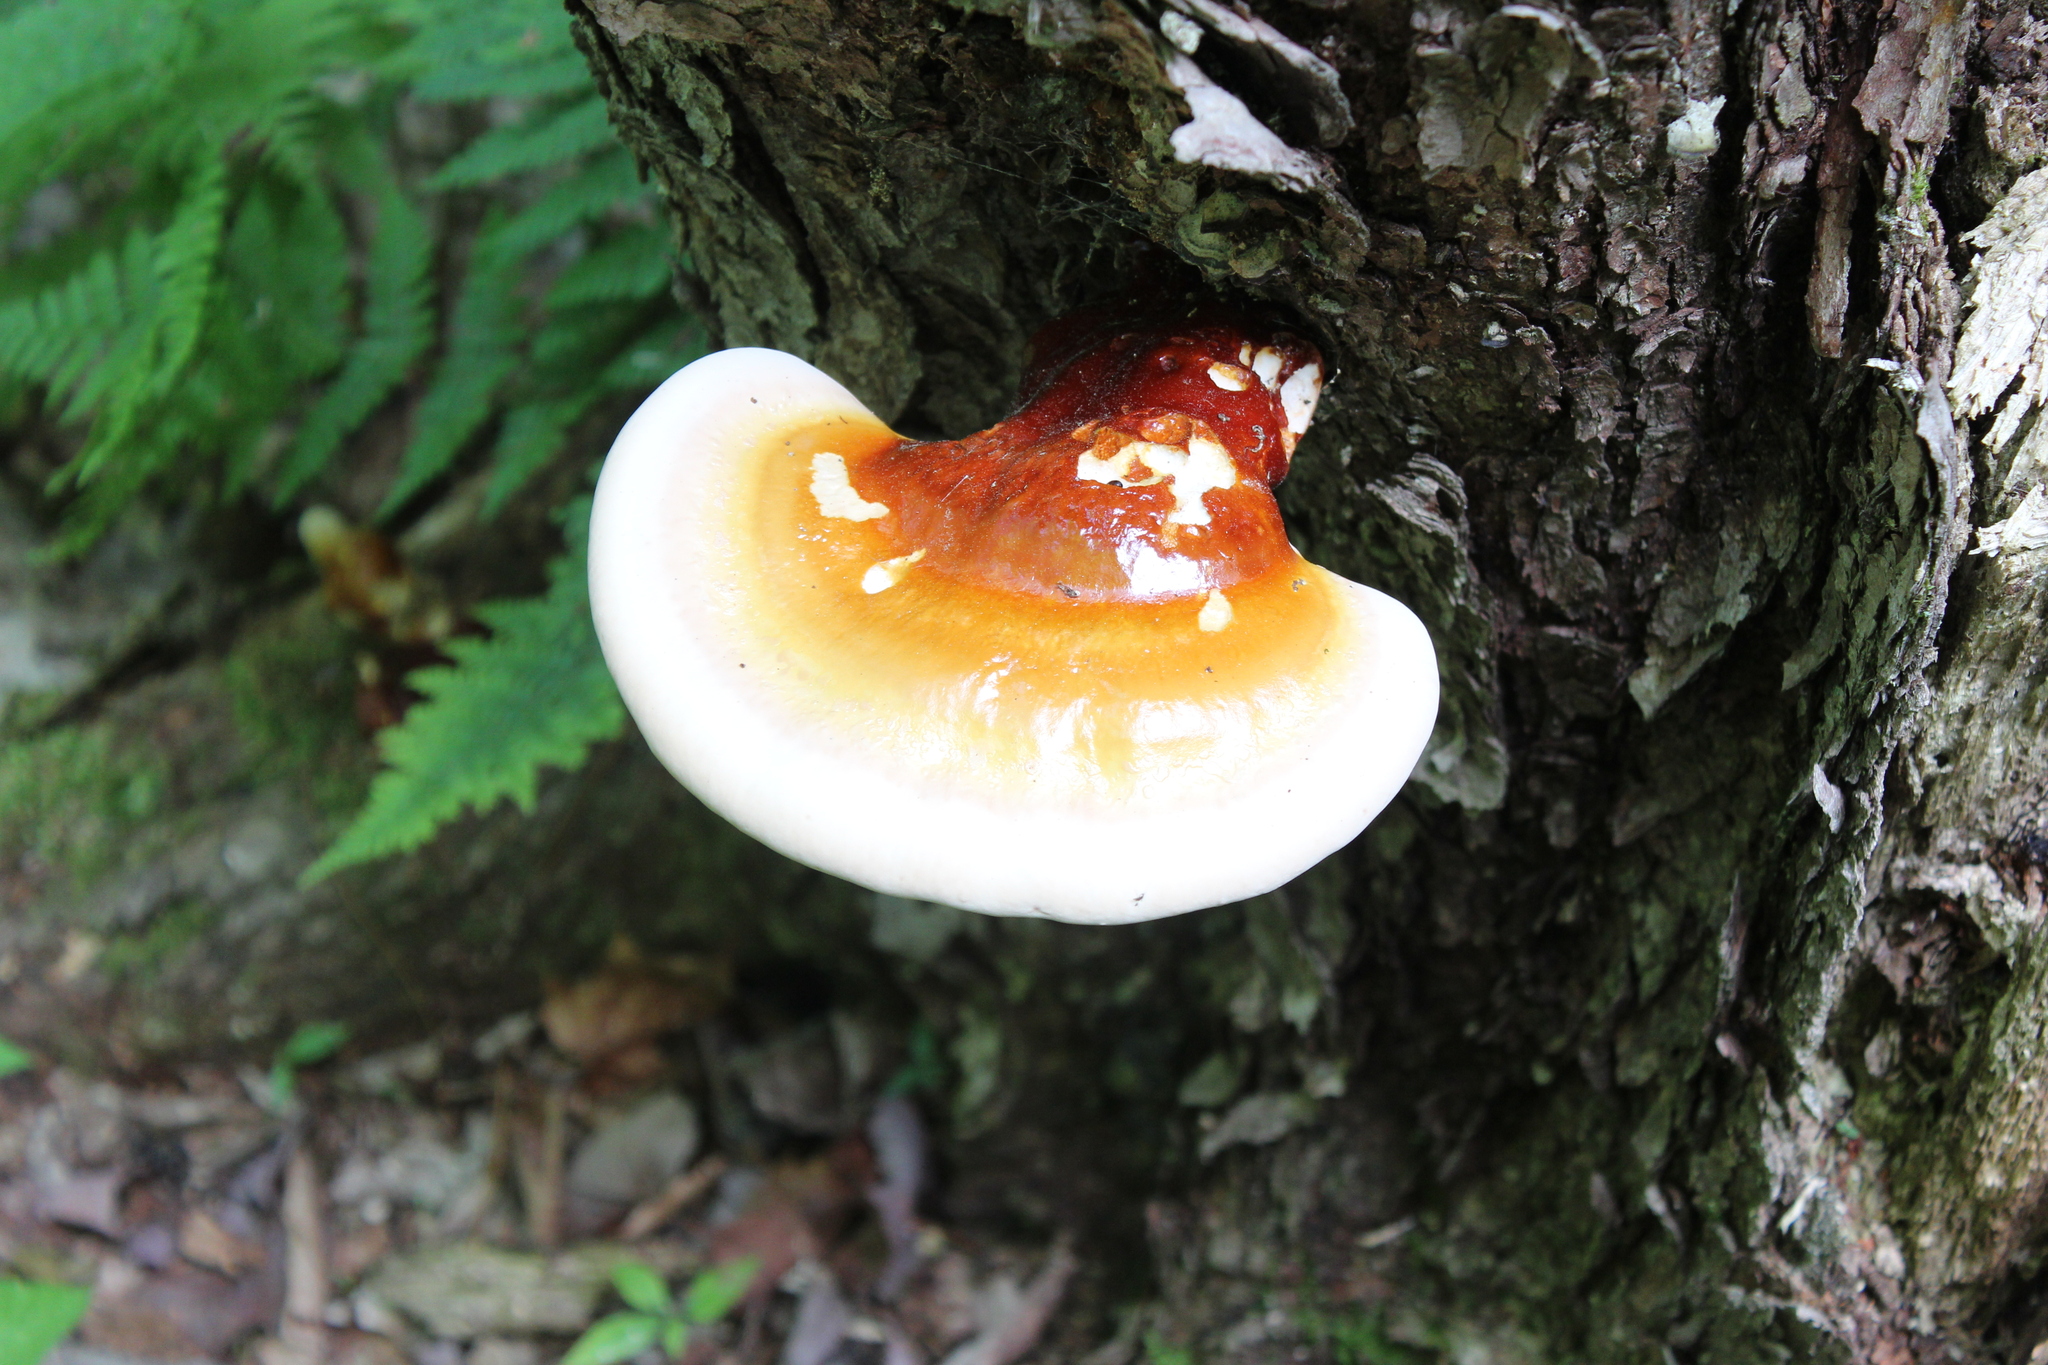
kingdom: Fungi
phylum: Basidiomycota
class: Agaricomycetes
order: Polyporales
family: Polyporaceae
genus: Ganoderma
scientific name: Ganoderma tsugae
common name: Hemlock varnish shelf
